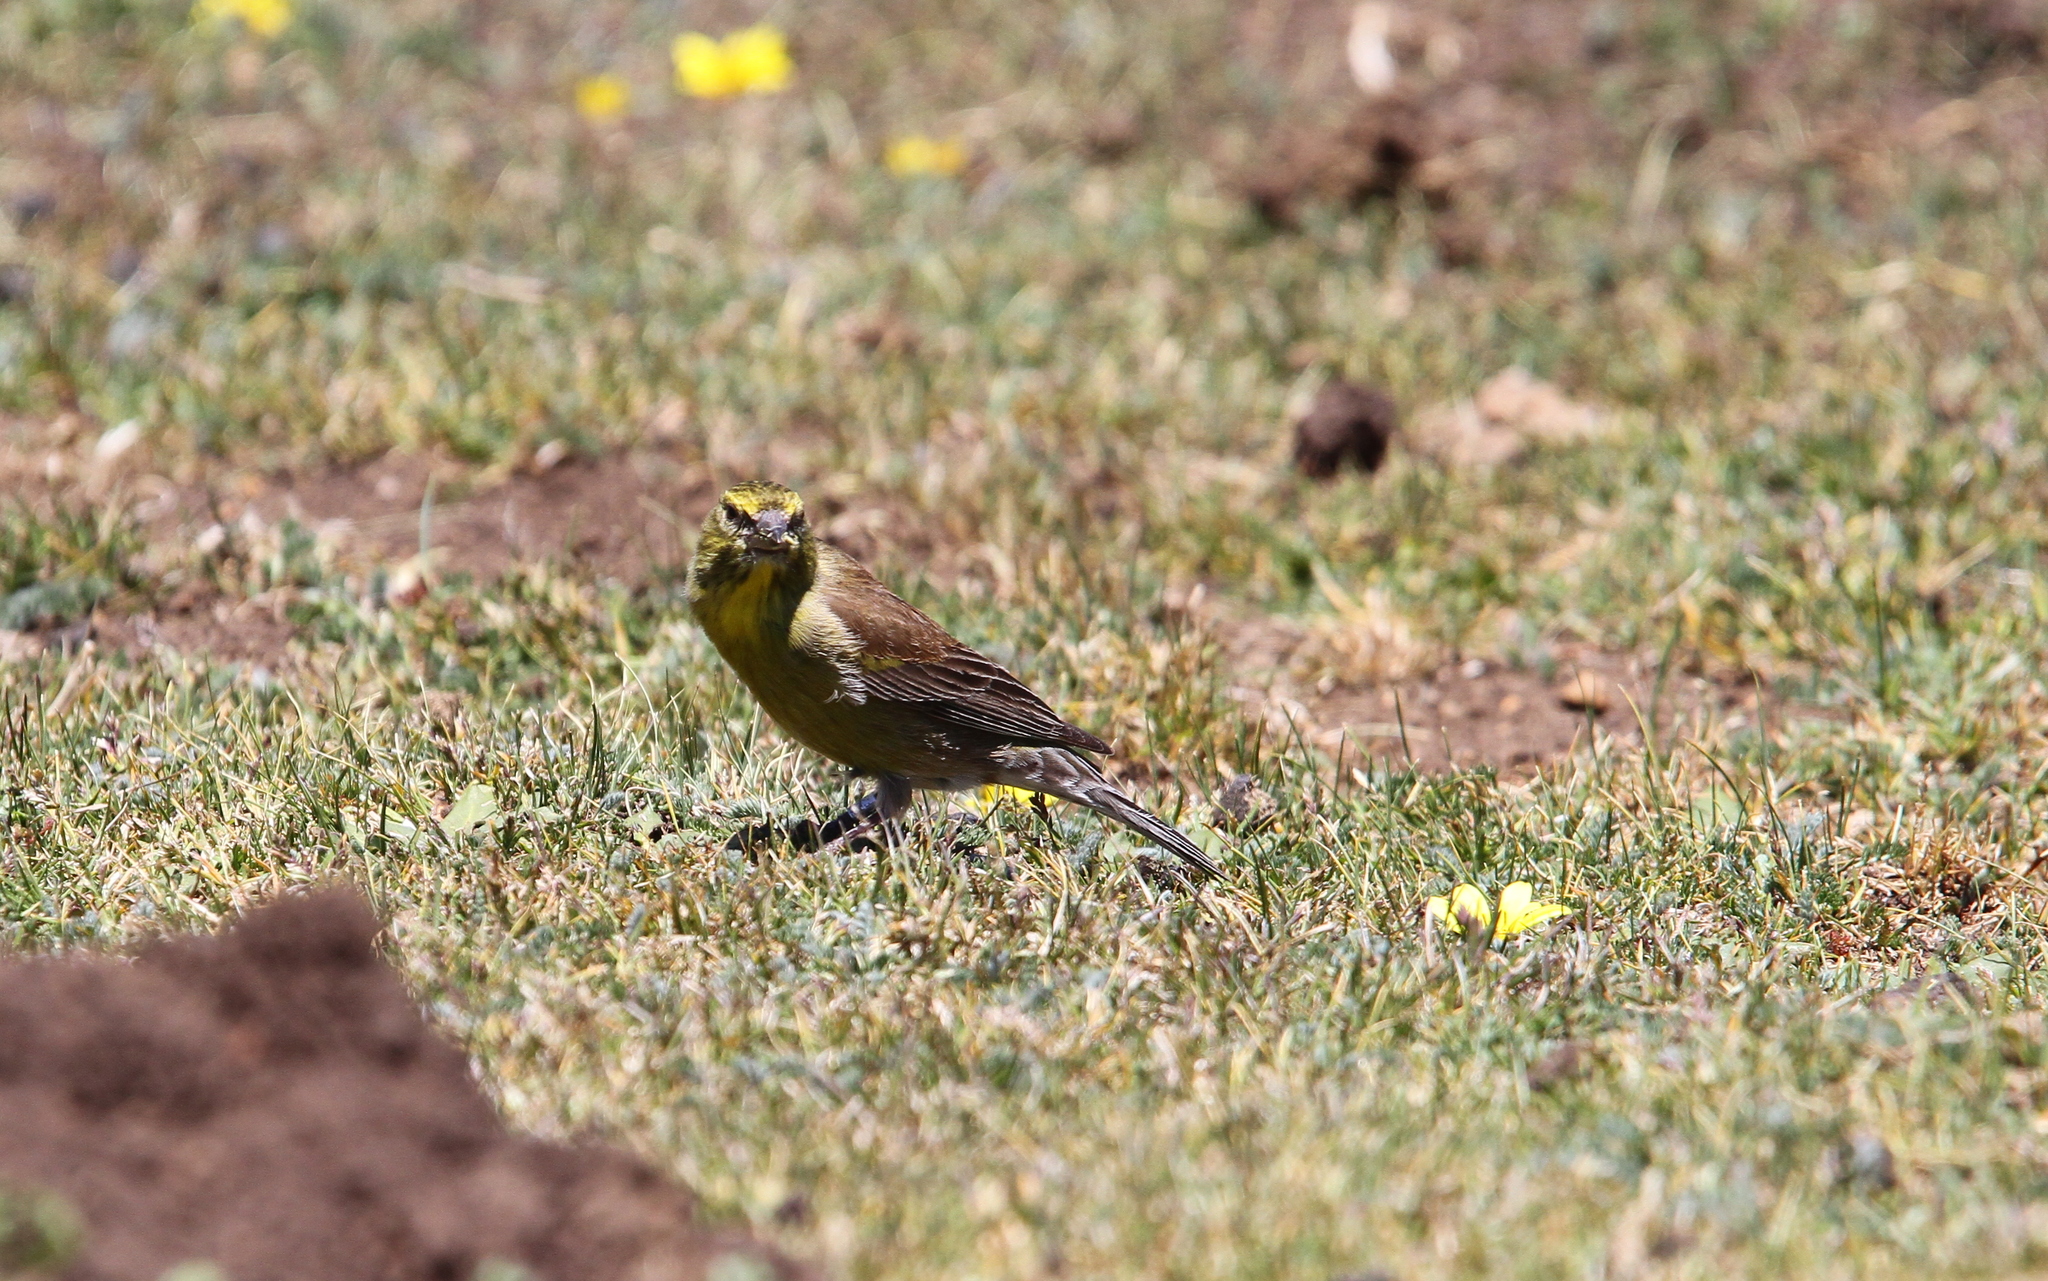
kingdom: Animalia
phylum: Chordata
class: Aves
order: Passeriformes
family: Fringillidae
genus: Crithagra
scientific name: Crithagra symonsi
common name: Drakensberg siskin
